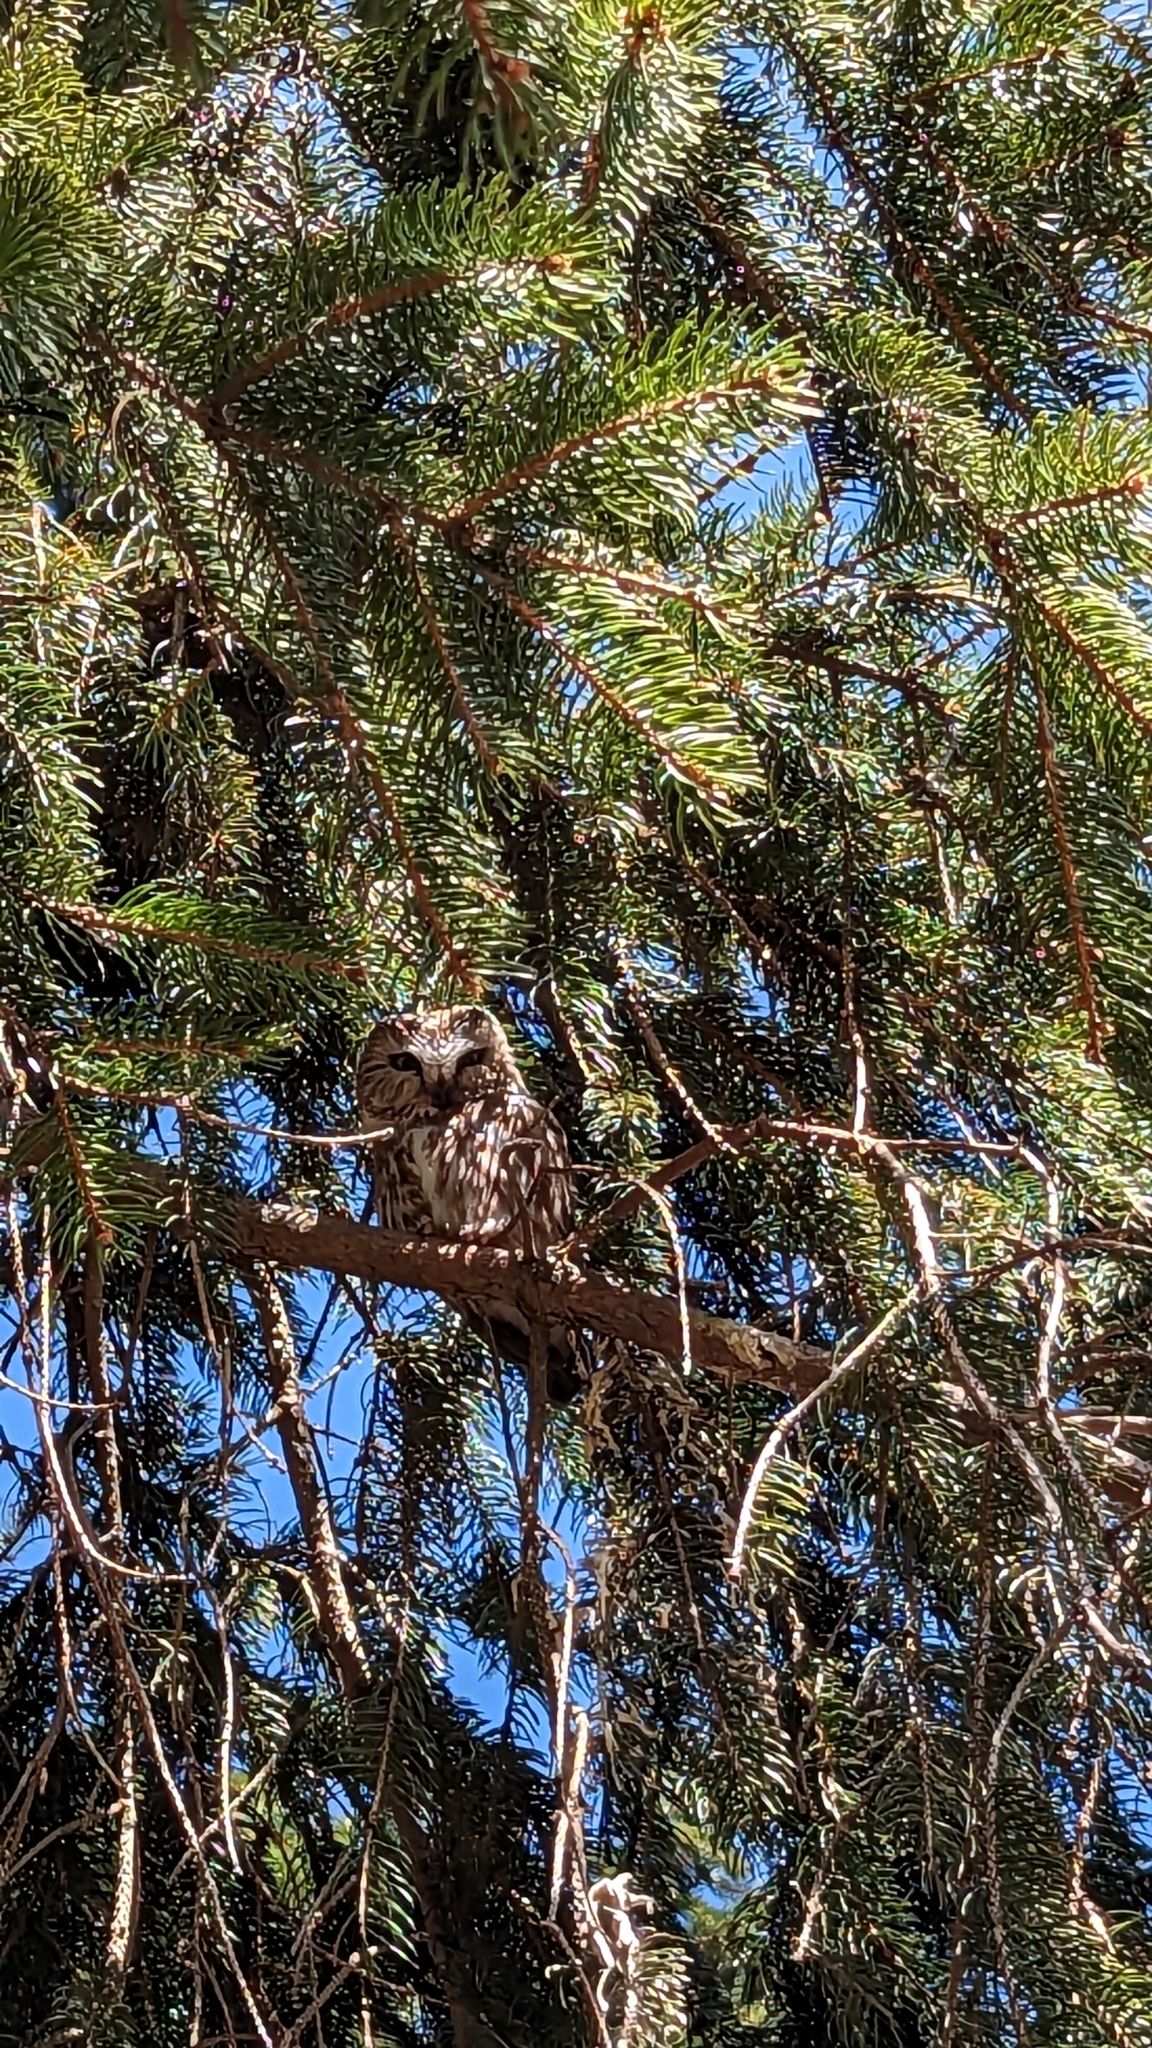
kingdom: Animalia
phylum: Chordata
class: Aves
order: Strigiformes
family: Strigidae
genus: Aegolius
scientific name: Aegolius acadicus
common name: Northern saw-whet owl
